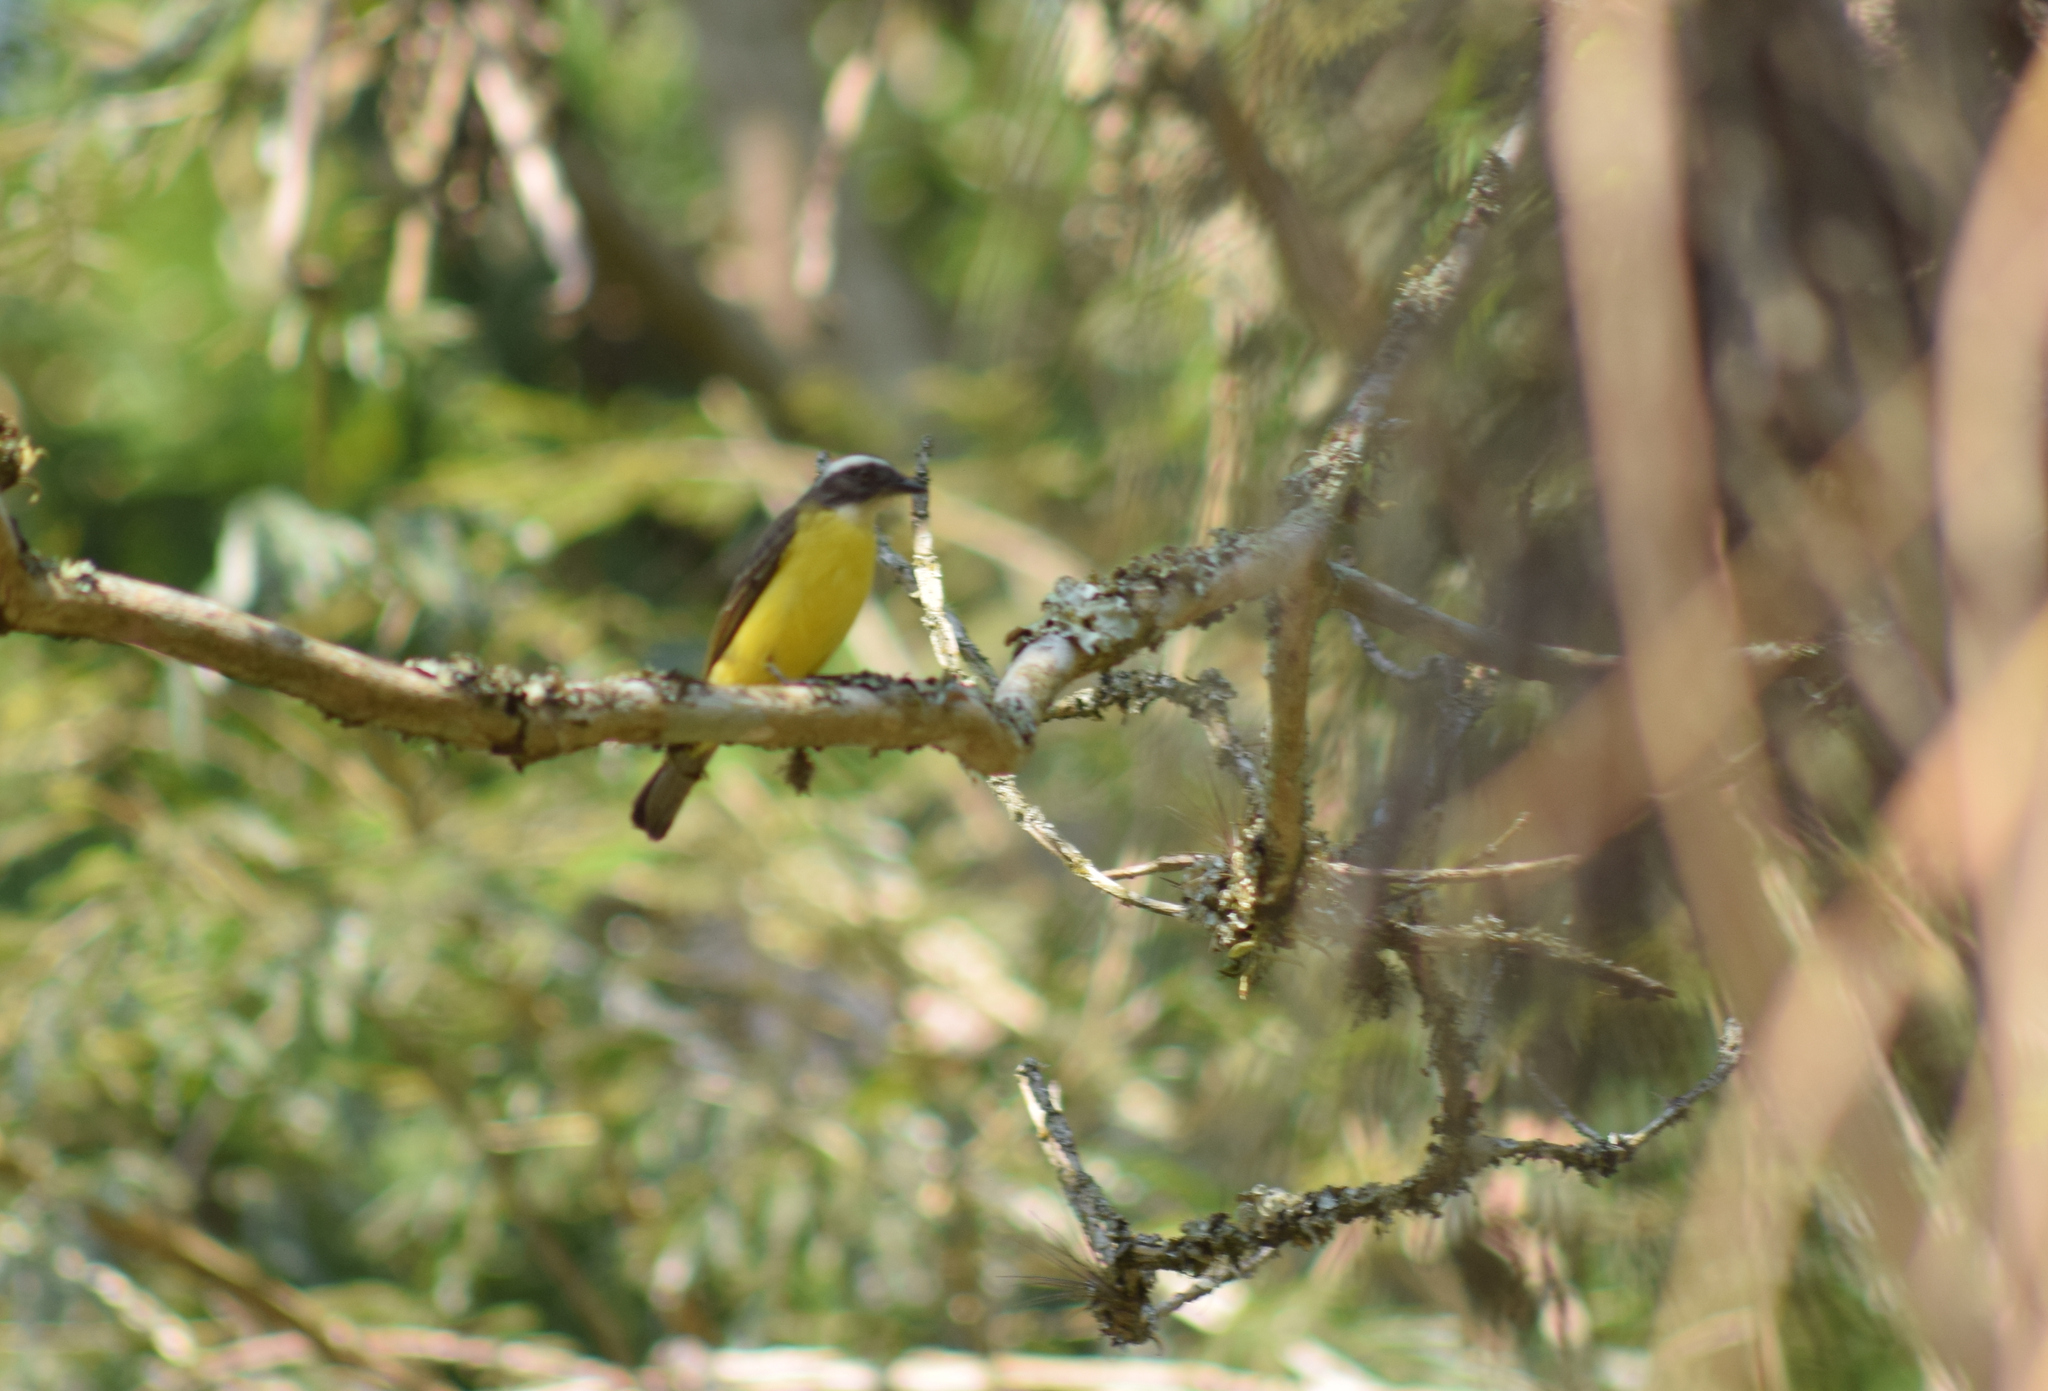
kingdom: Animalia
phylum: Chordata
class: Aves
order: Passeriformes
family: Tyrannidae
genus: Myiozetetes
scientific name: Myiozetetes similis
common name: Social flycatcher
